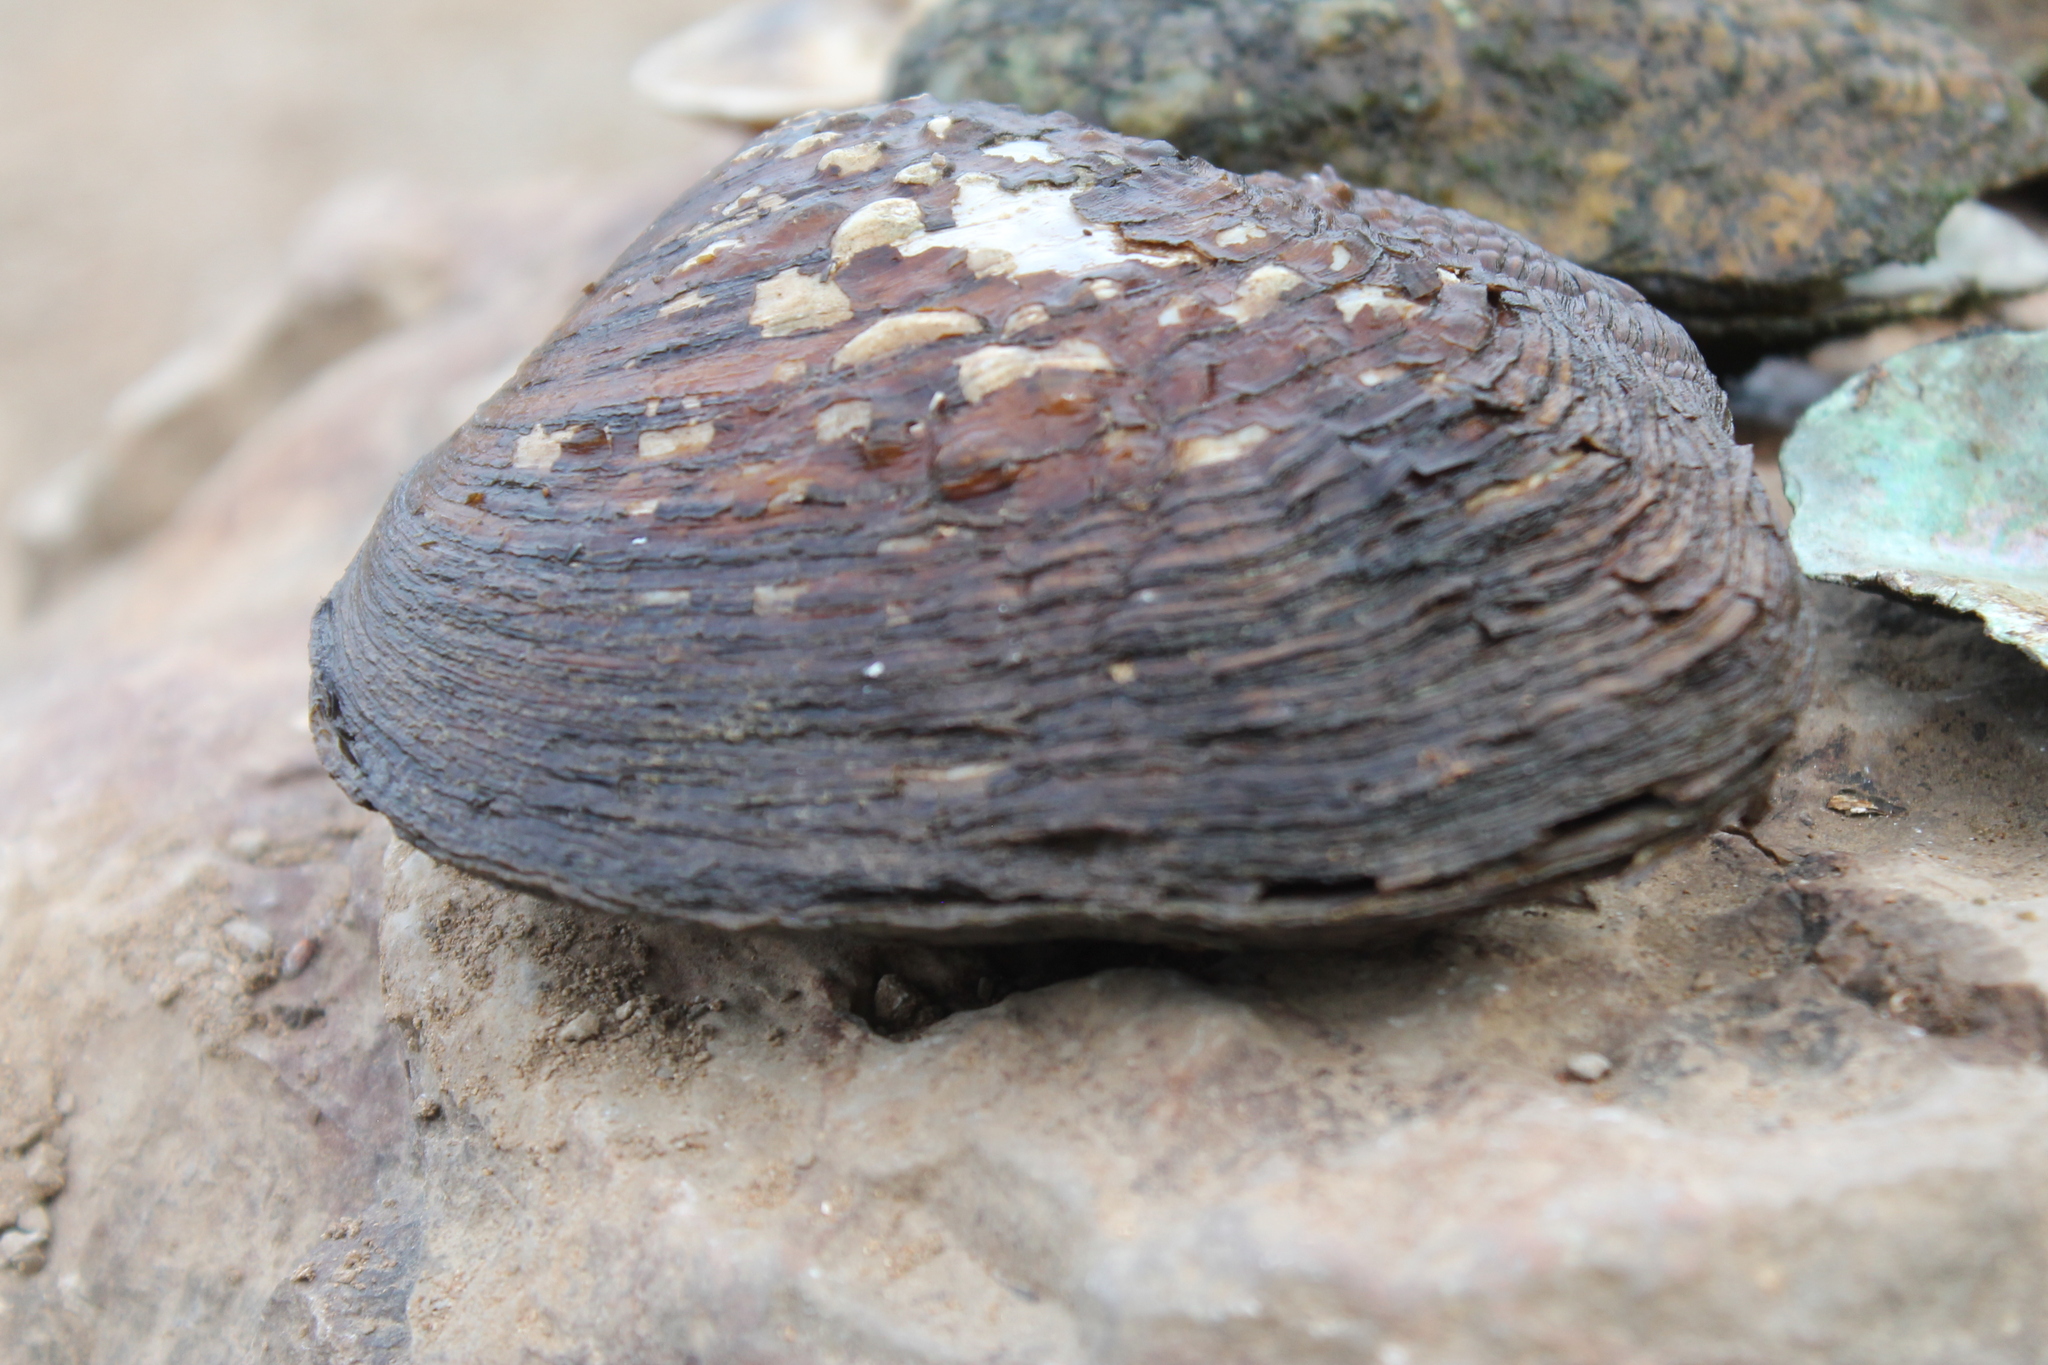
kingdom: Animalia
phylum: Mollusca
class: Bivalvia
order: Unionida
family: Unionidae
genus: Cyclonaias
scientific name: Cyclonaias tuberculata
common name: Purple wartyback
